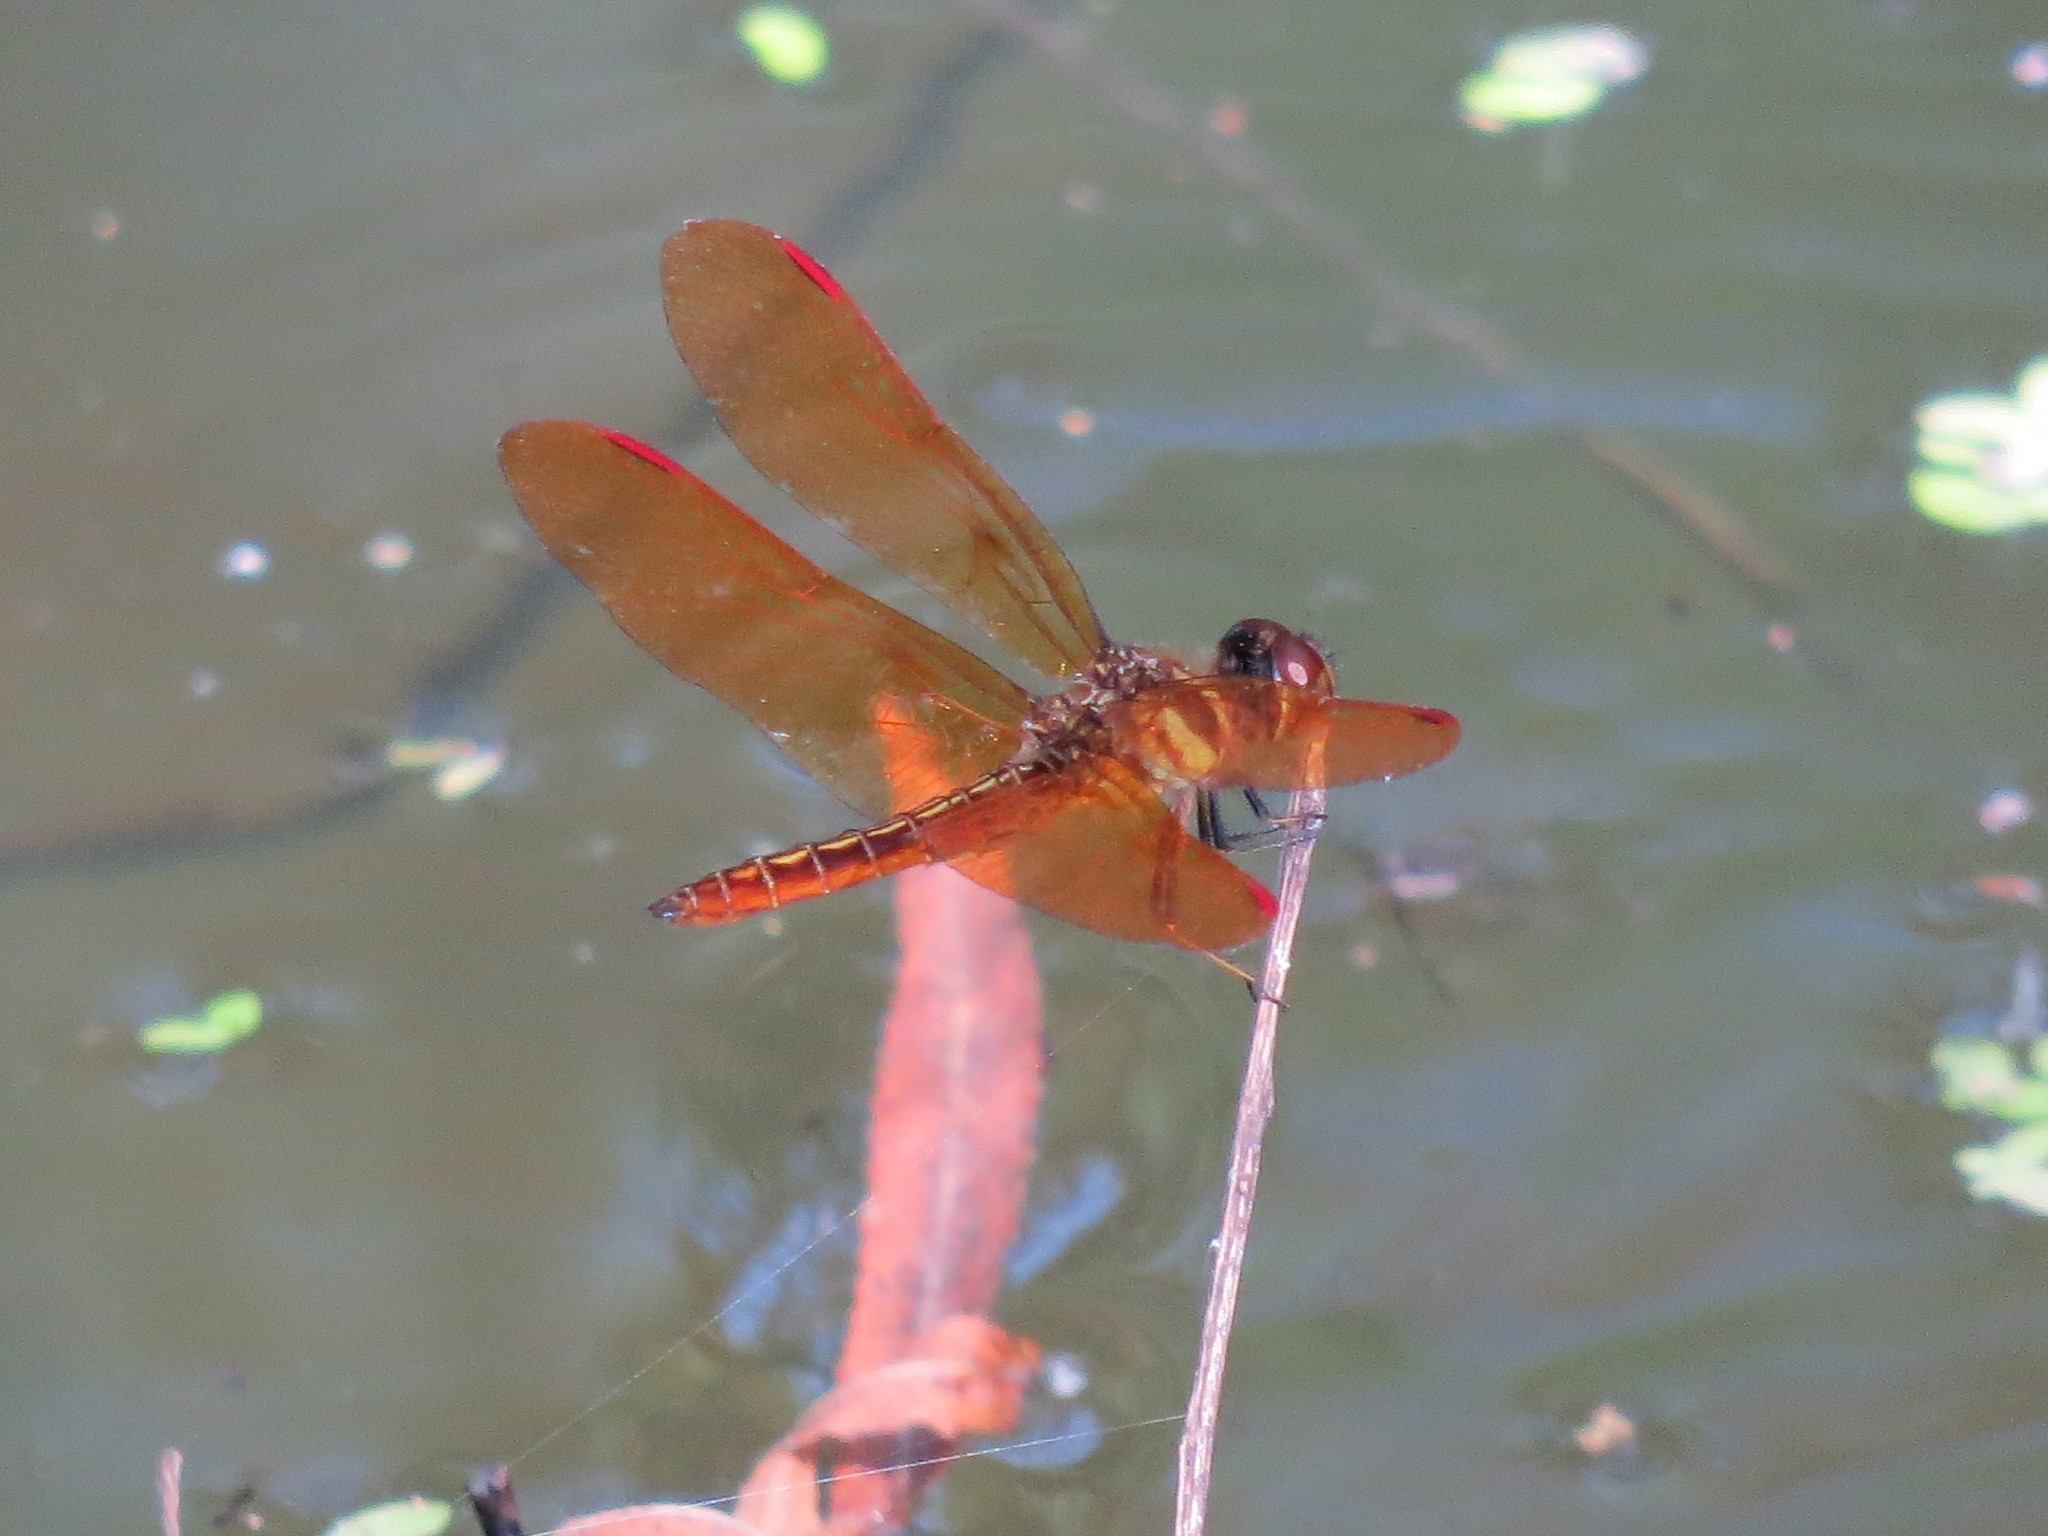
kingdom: Animalia
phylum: Arthropoda
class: Insecta
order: Odonata
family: Libellulidae
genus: Perithemis
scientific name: Perithemis domitia
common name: Slough amberwing
